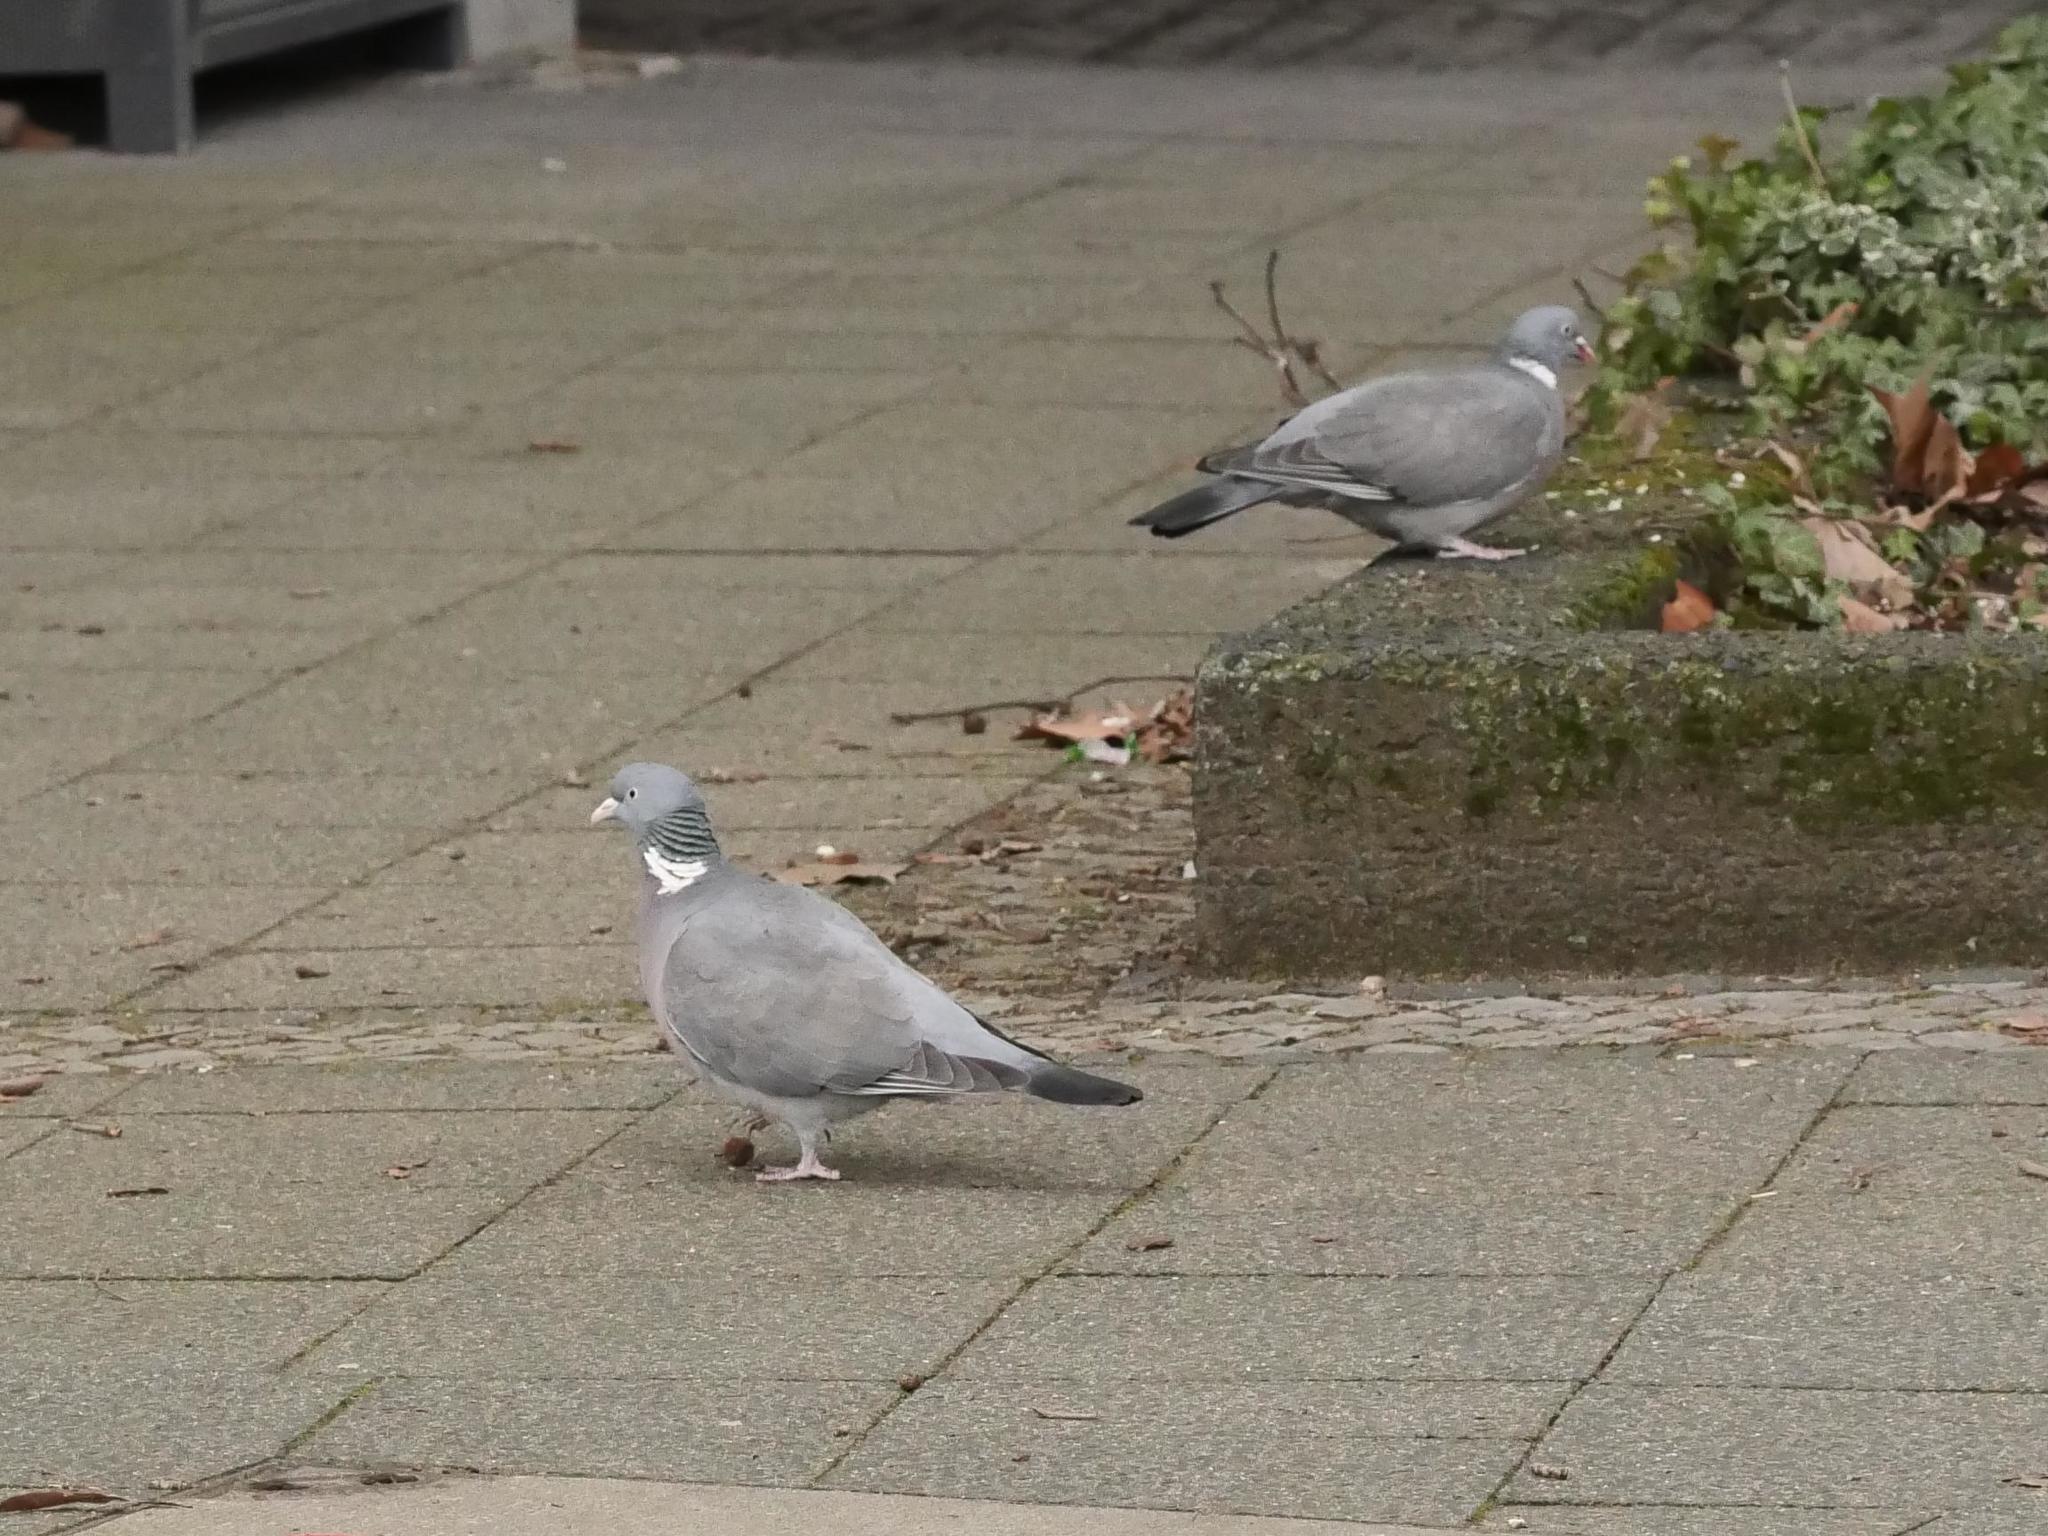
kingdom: Animalia
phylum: Chordata
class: Aves
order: Columbiformes
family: Columbidae
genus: Columba
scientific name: Columba palumbus
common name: Common wood pigeon
